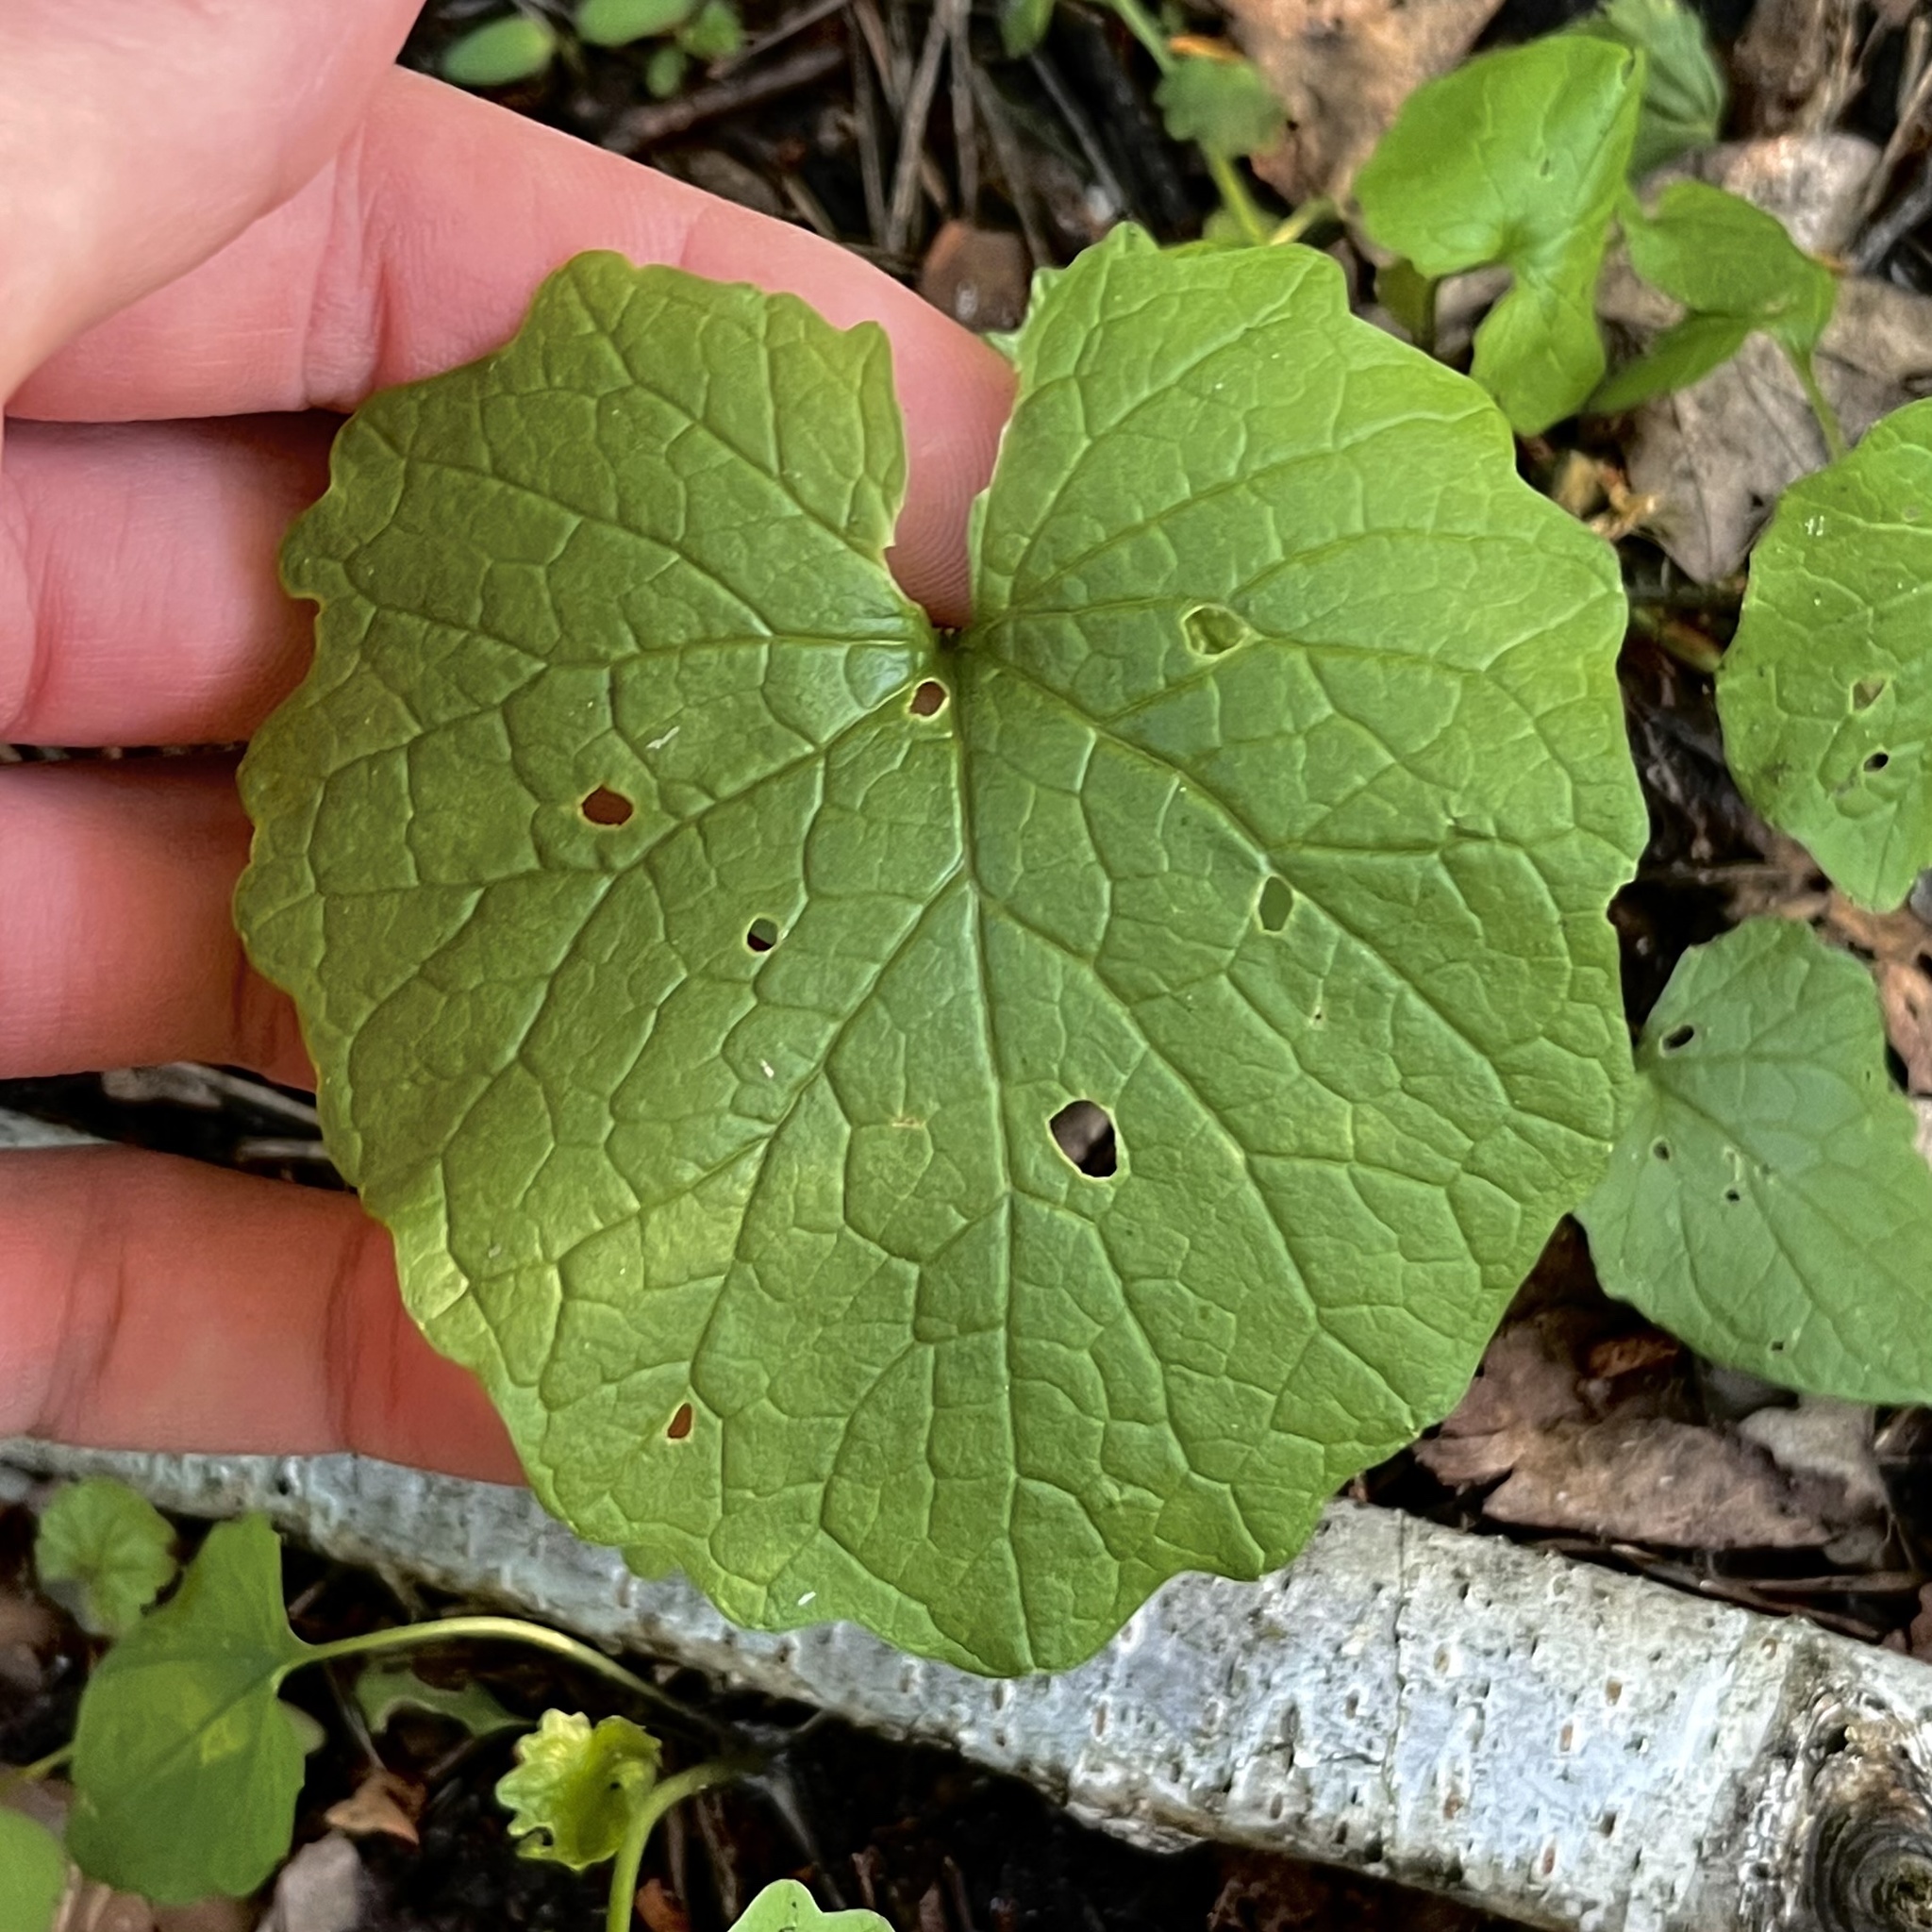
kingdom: Plantae
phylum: Tracheophyta
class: Magnoliopsida
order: Brassicales
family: Brassicaceae
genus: Alliaria
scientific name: Alliaria petiolata
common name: Garlic mustard
